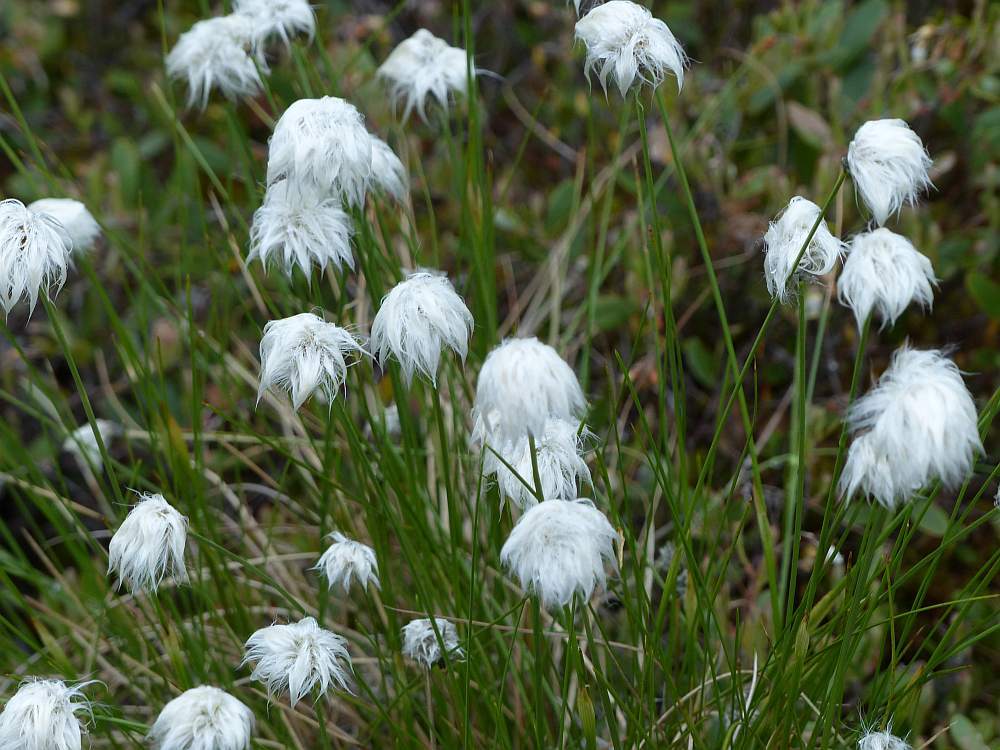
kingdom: Plantae
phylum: Tracheophyta
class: Liliopsida
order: Poales
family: Cyperaceae
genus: Eriophorum
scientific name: Eriophorum vaginatum
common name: Hare's-tail cottongrass
